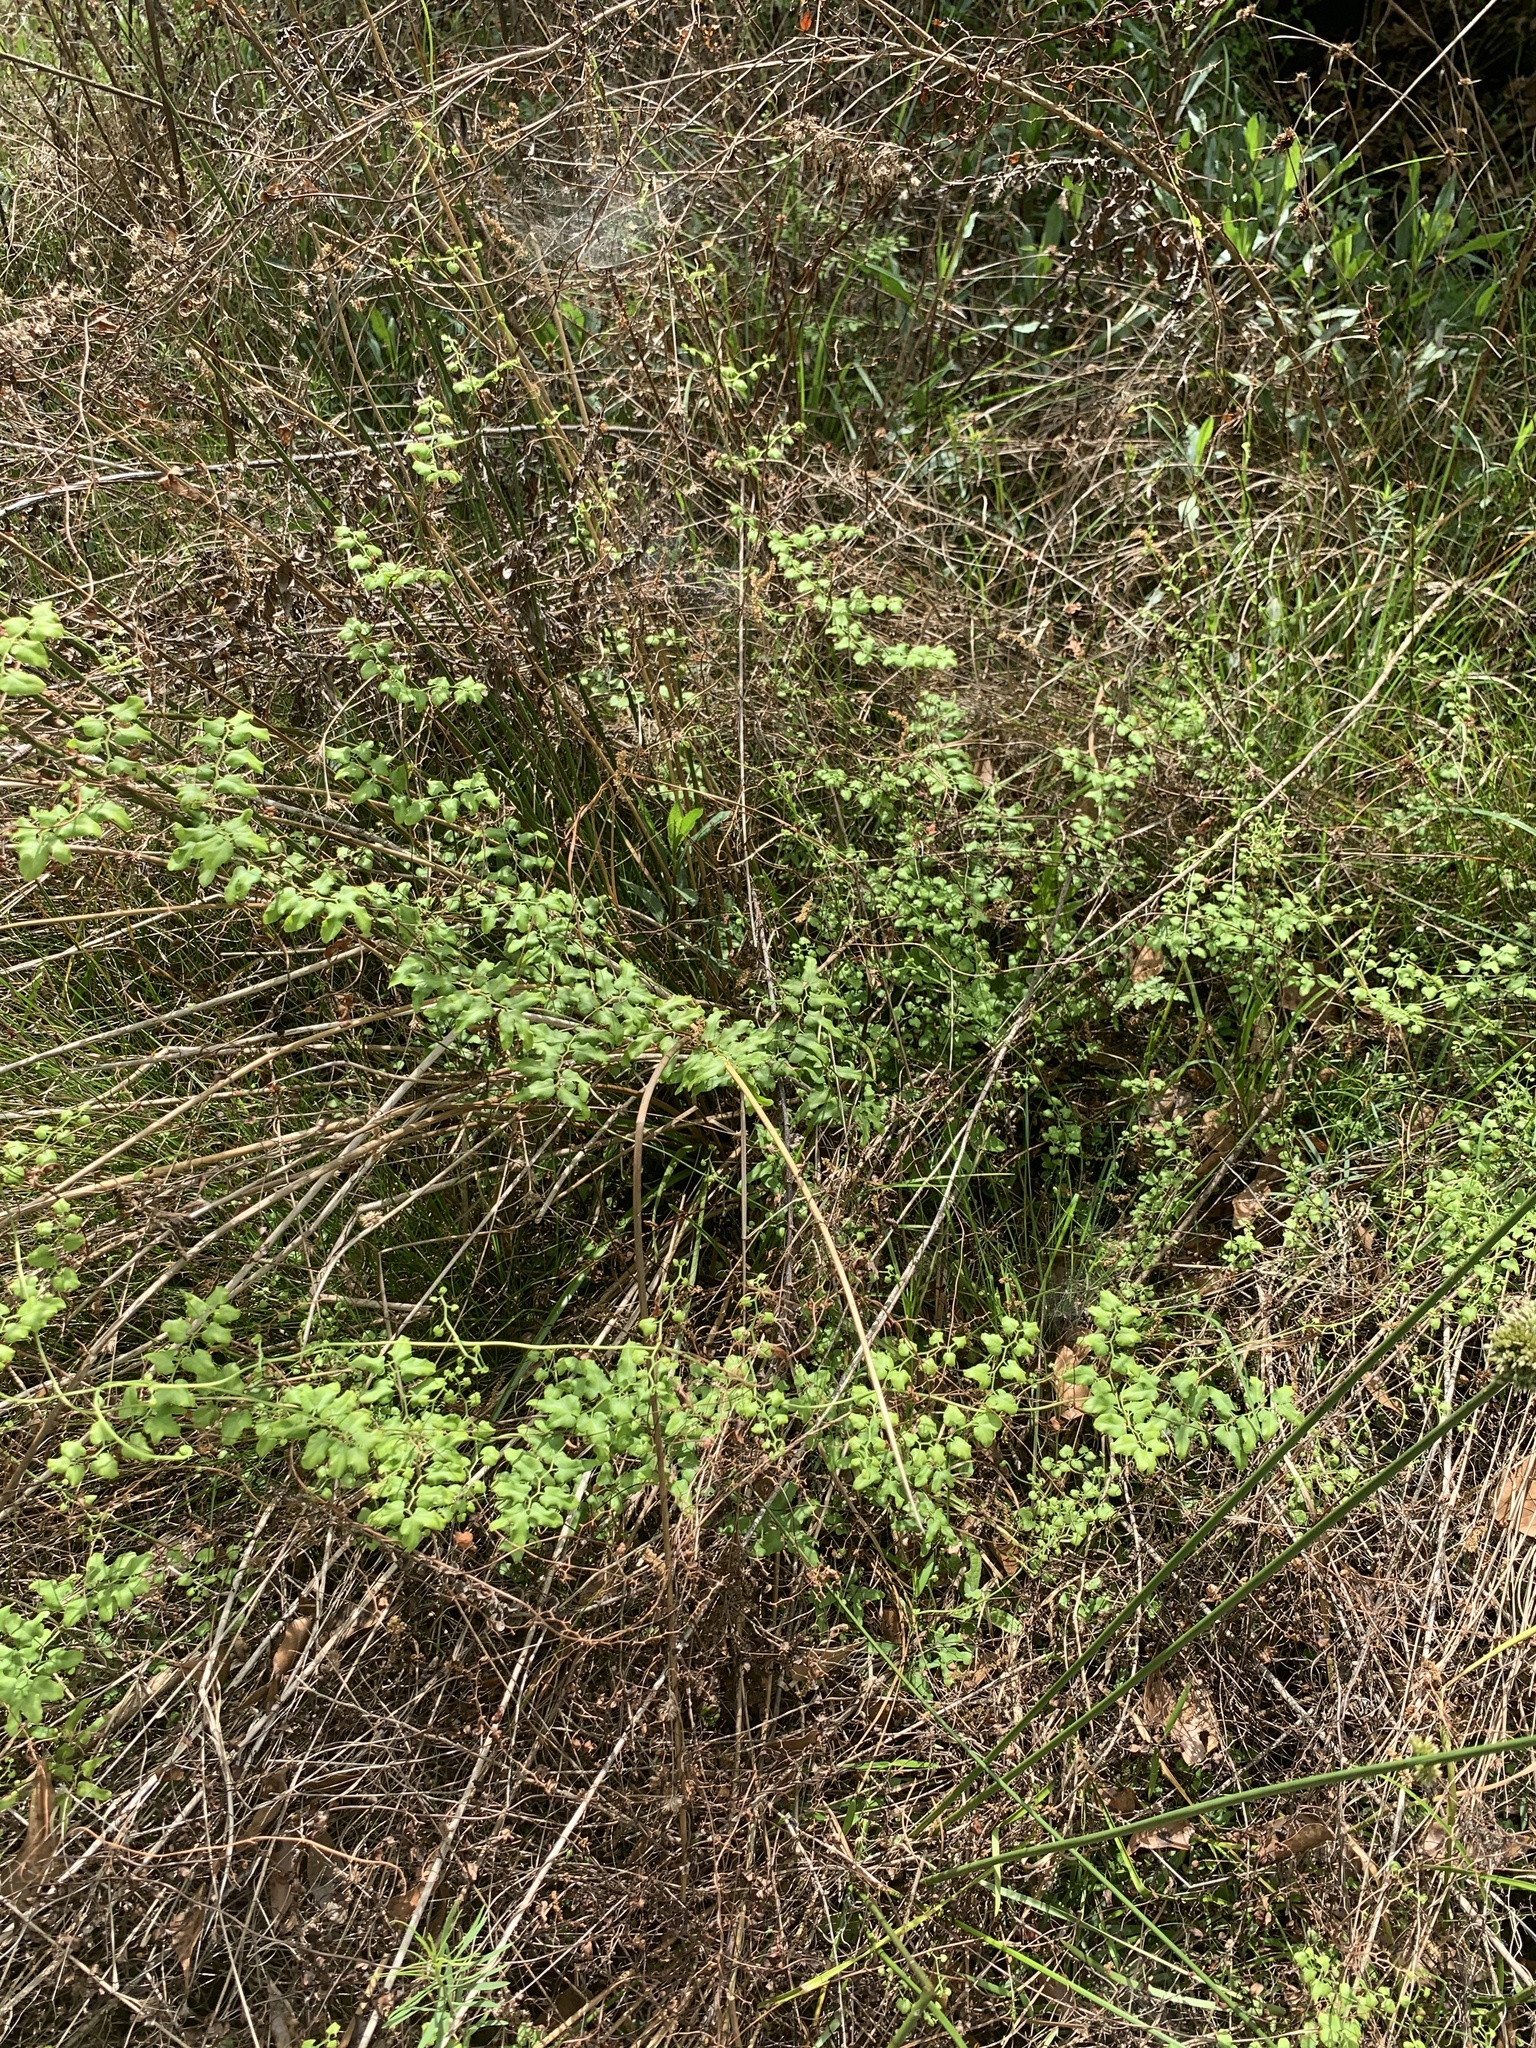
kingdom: Plantae
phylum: Tracheophyta
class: Polypodiopsida
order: Schizaeales
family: Lygodiaceae
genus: Lygodium
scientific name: Lygodium microphyllum
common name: Small-leaf climbing fern
